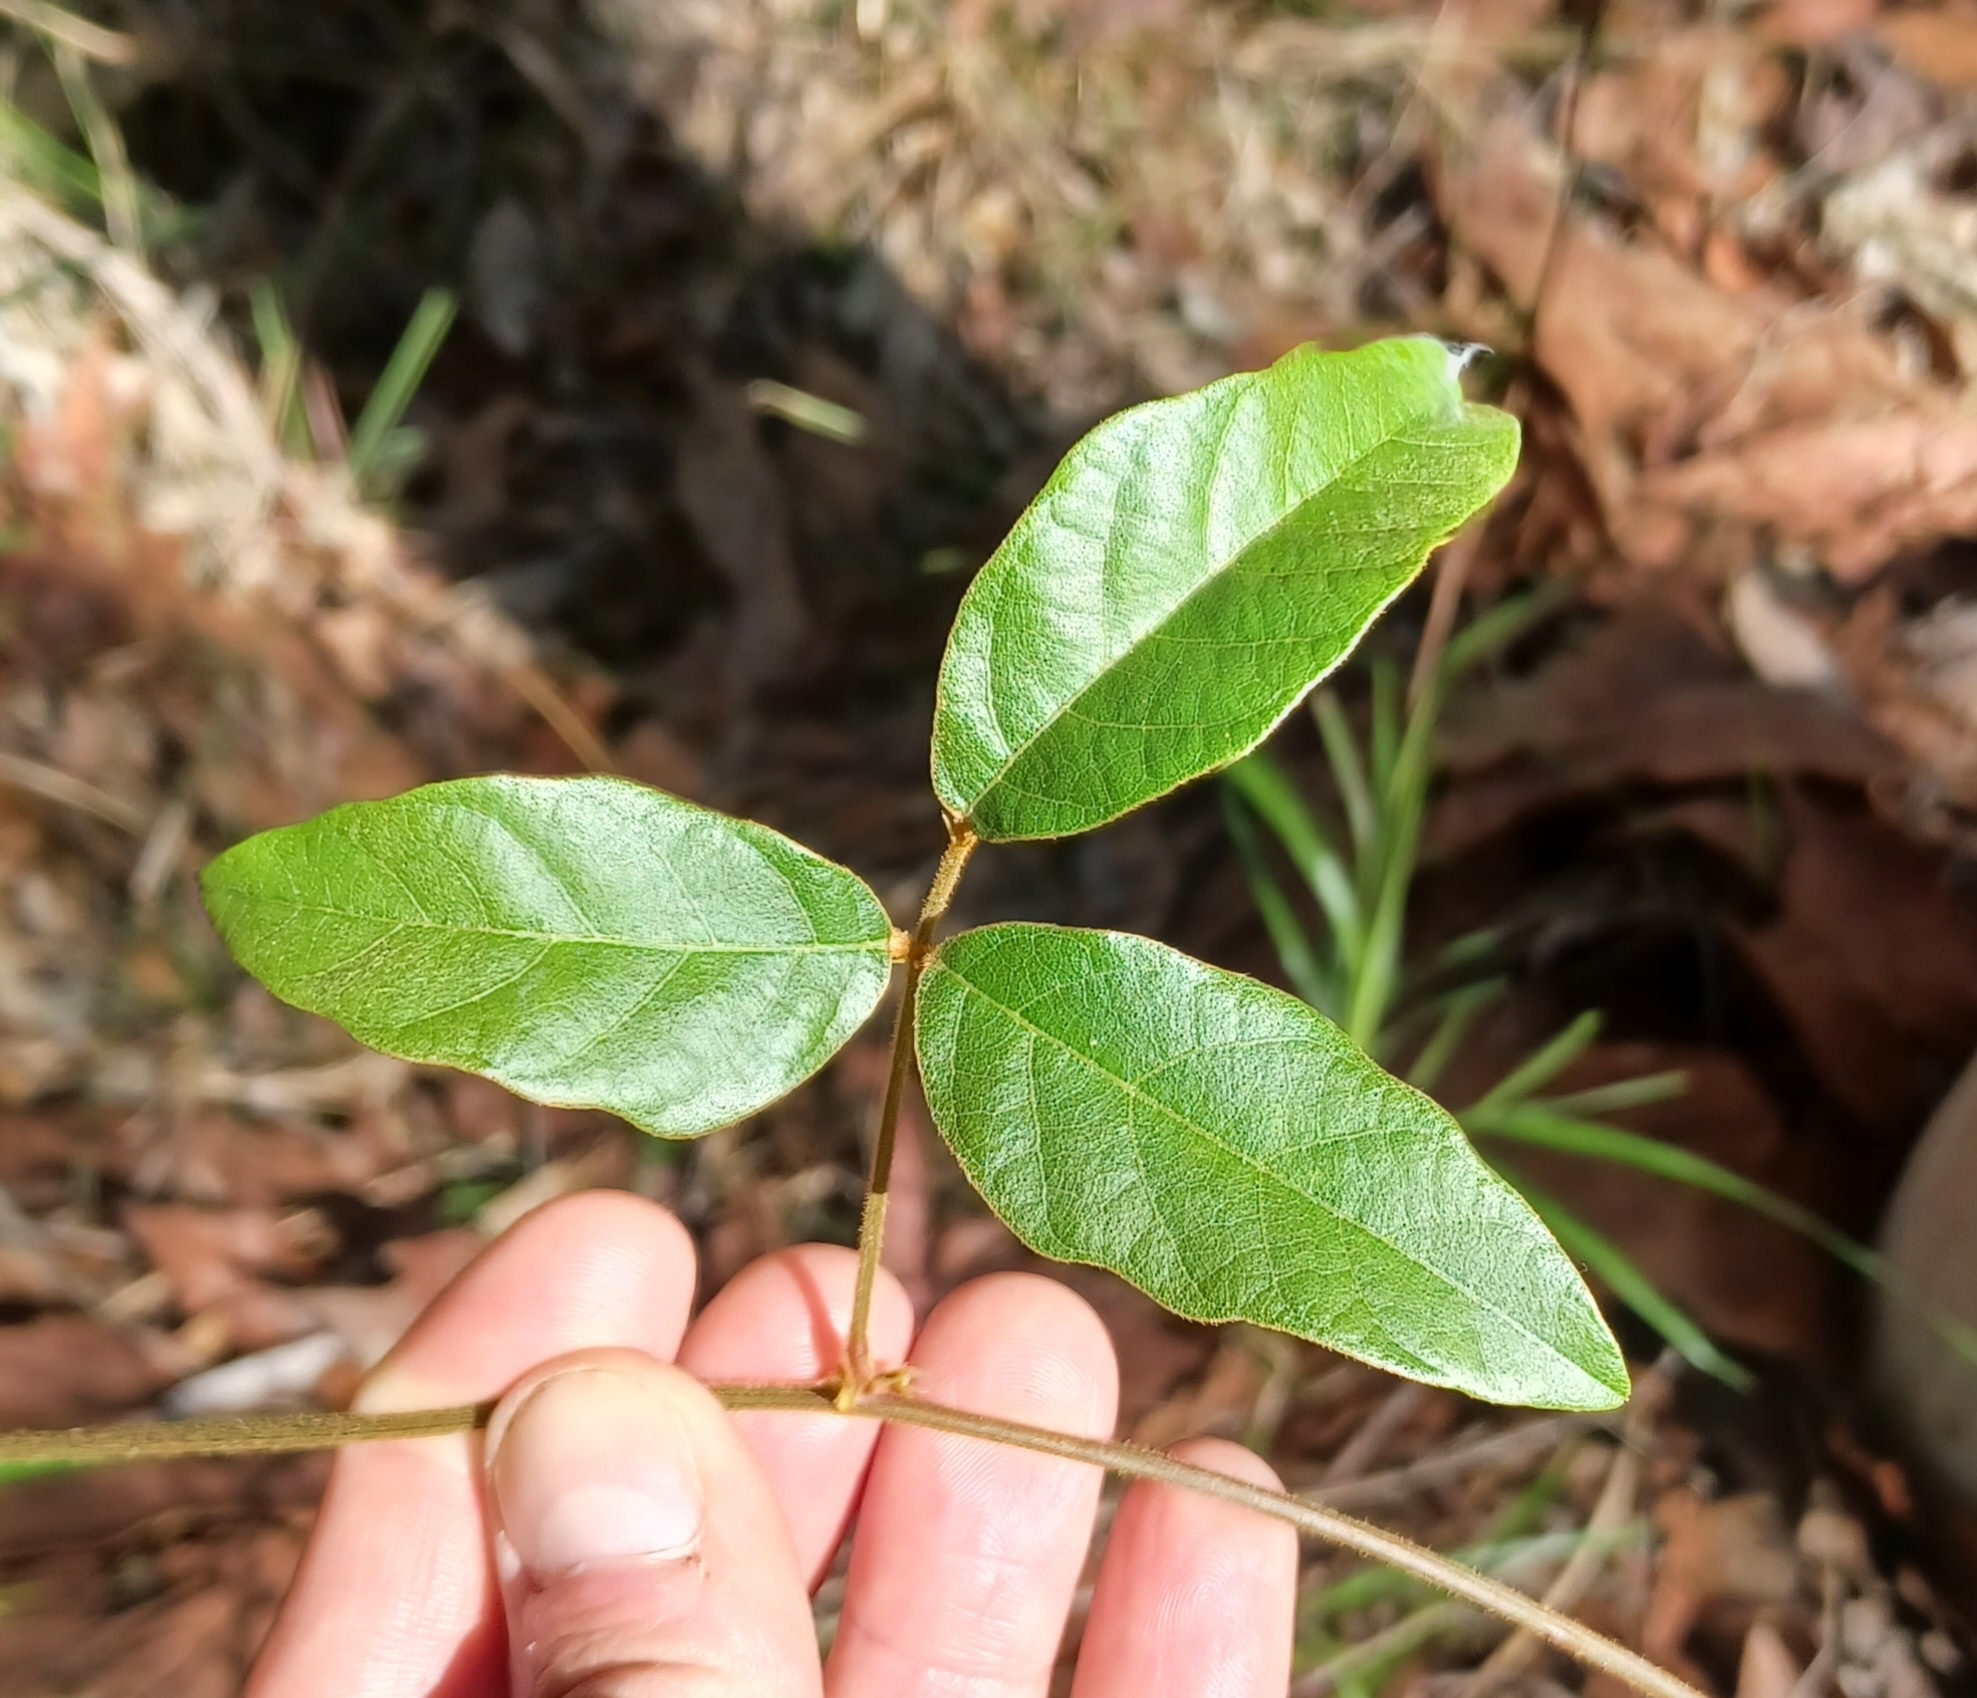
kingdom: Plantae
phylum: Tracheophyta
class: Magnoliopsida
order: Fabales
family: Fabaceae
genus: Kennedia
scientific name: Kennedia rubicunda
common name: Red kennedy-pea
